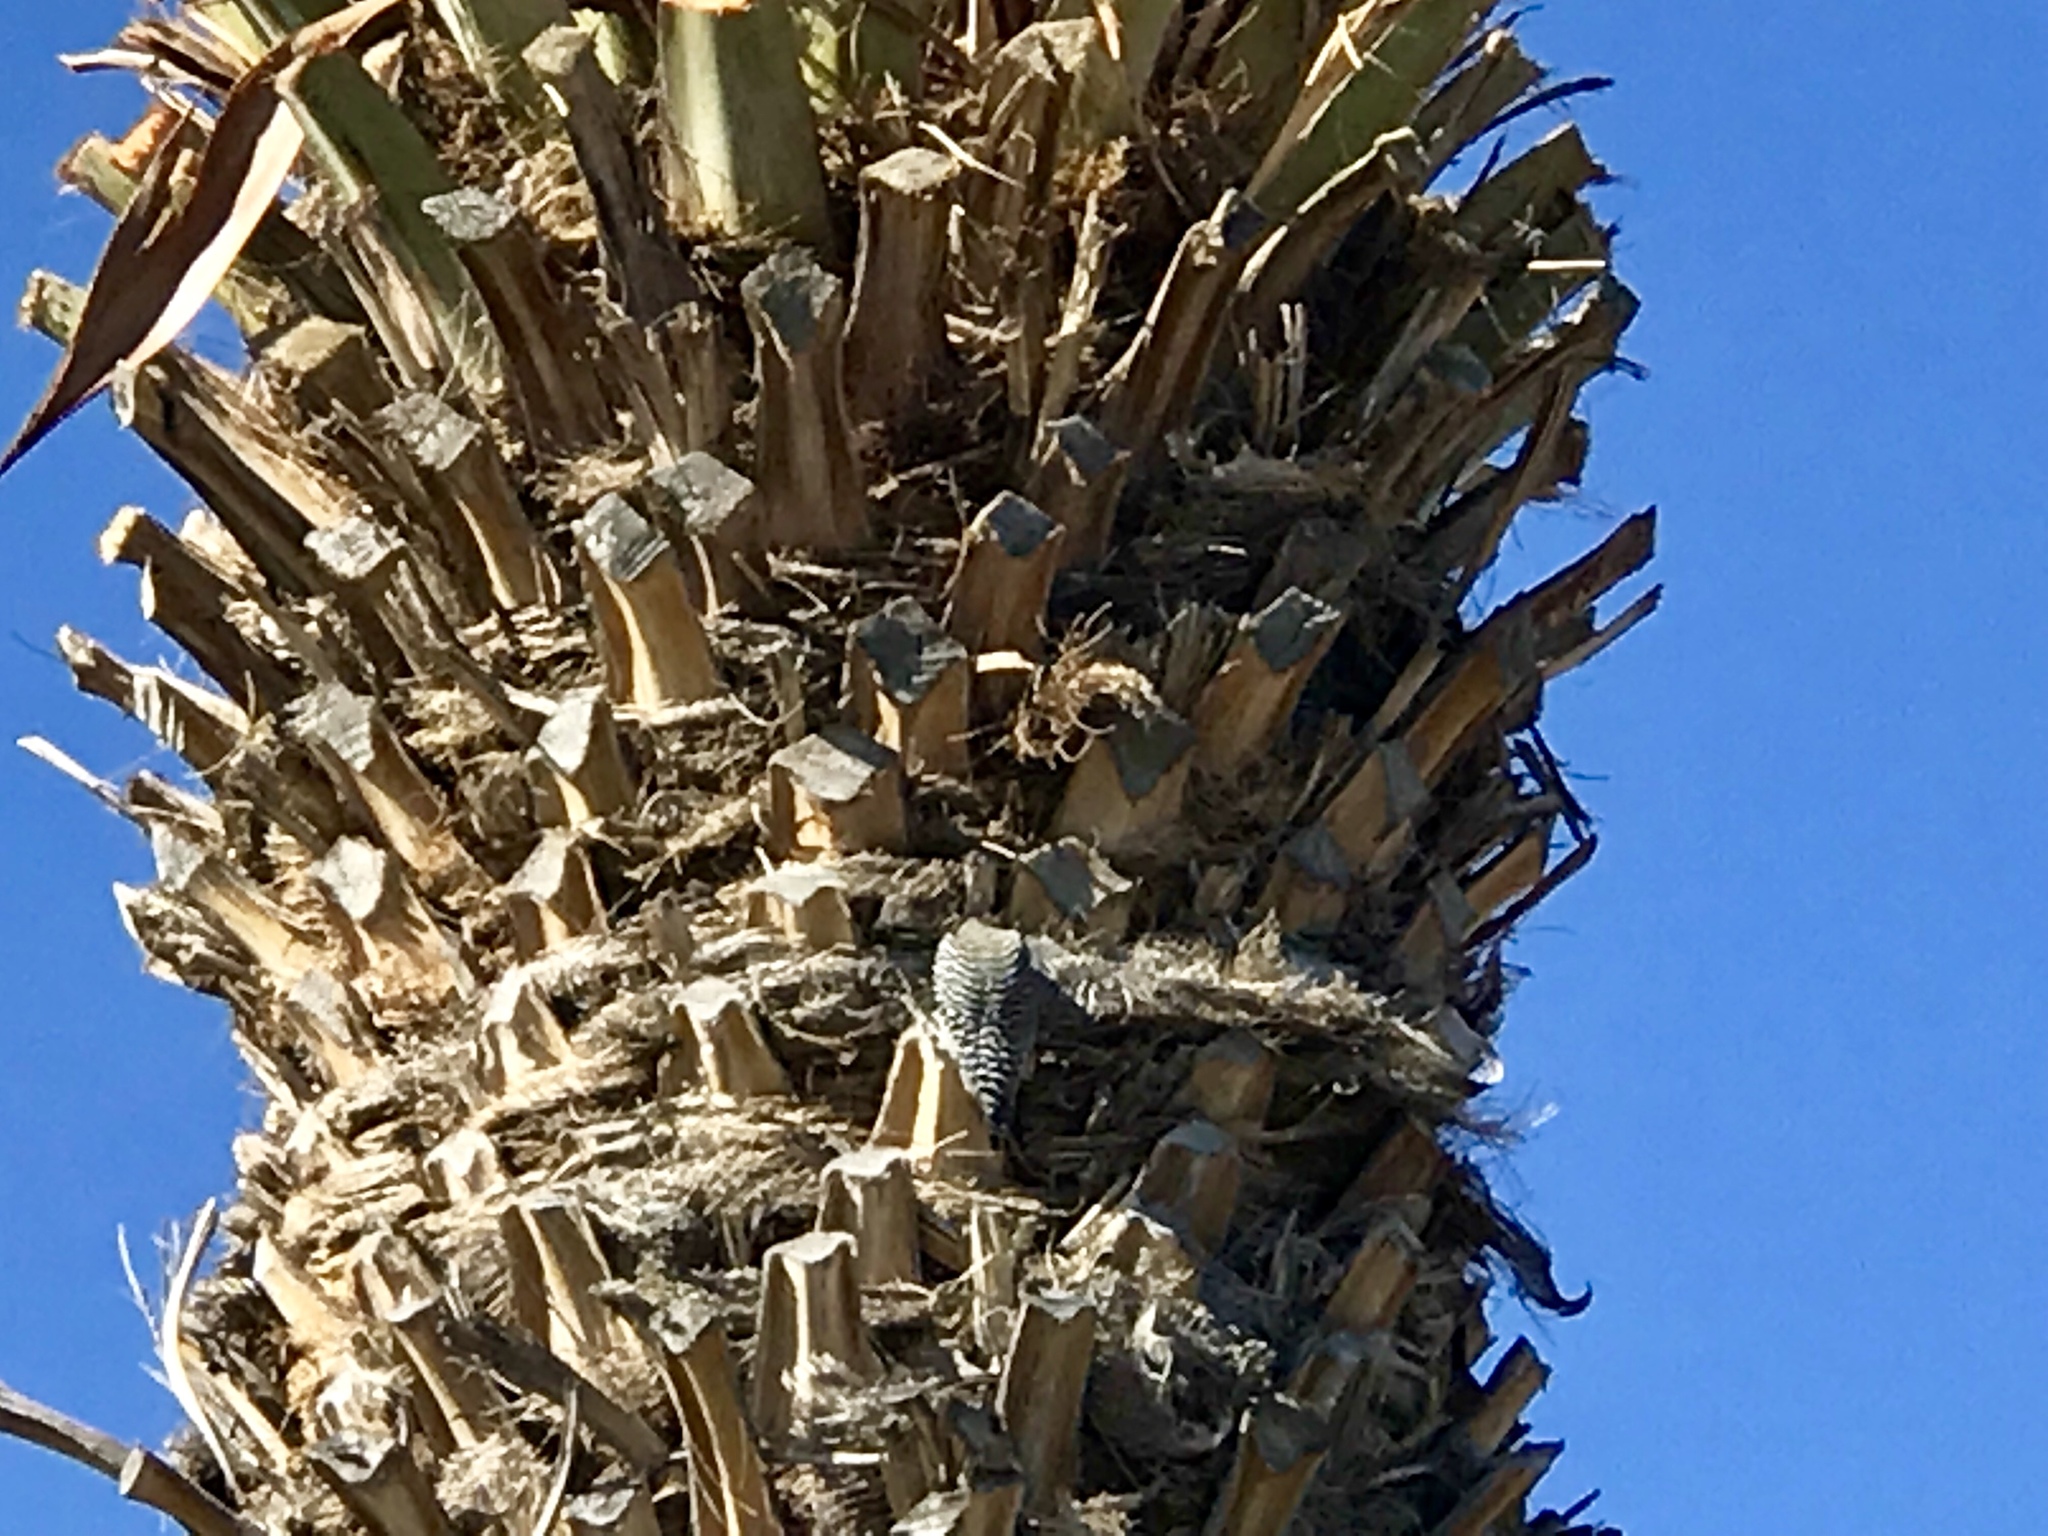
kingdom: Animalia
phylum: Chordata
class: Aves
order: Piciformes
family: Picidae
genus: Melanerpes
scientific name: Melanerpes uropygialis
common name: Gila woodpecker
